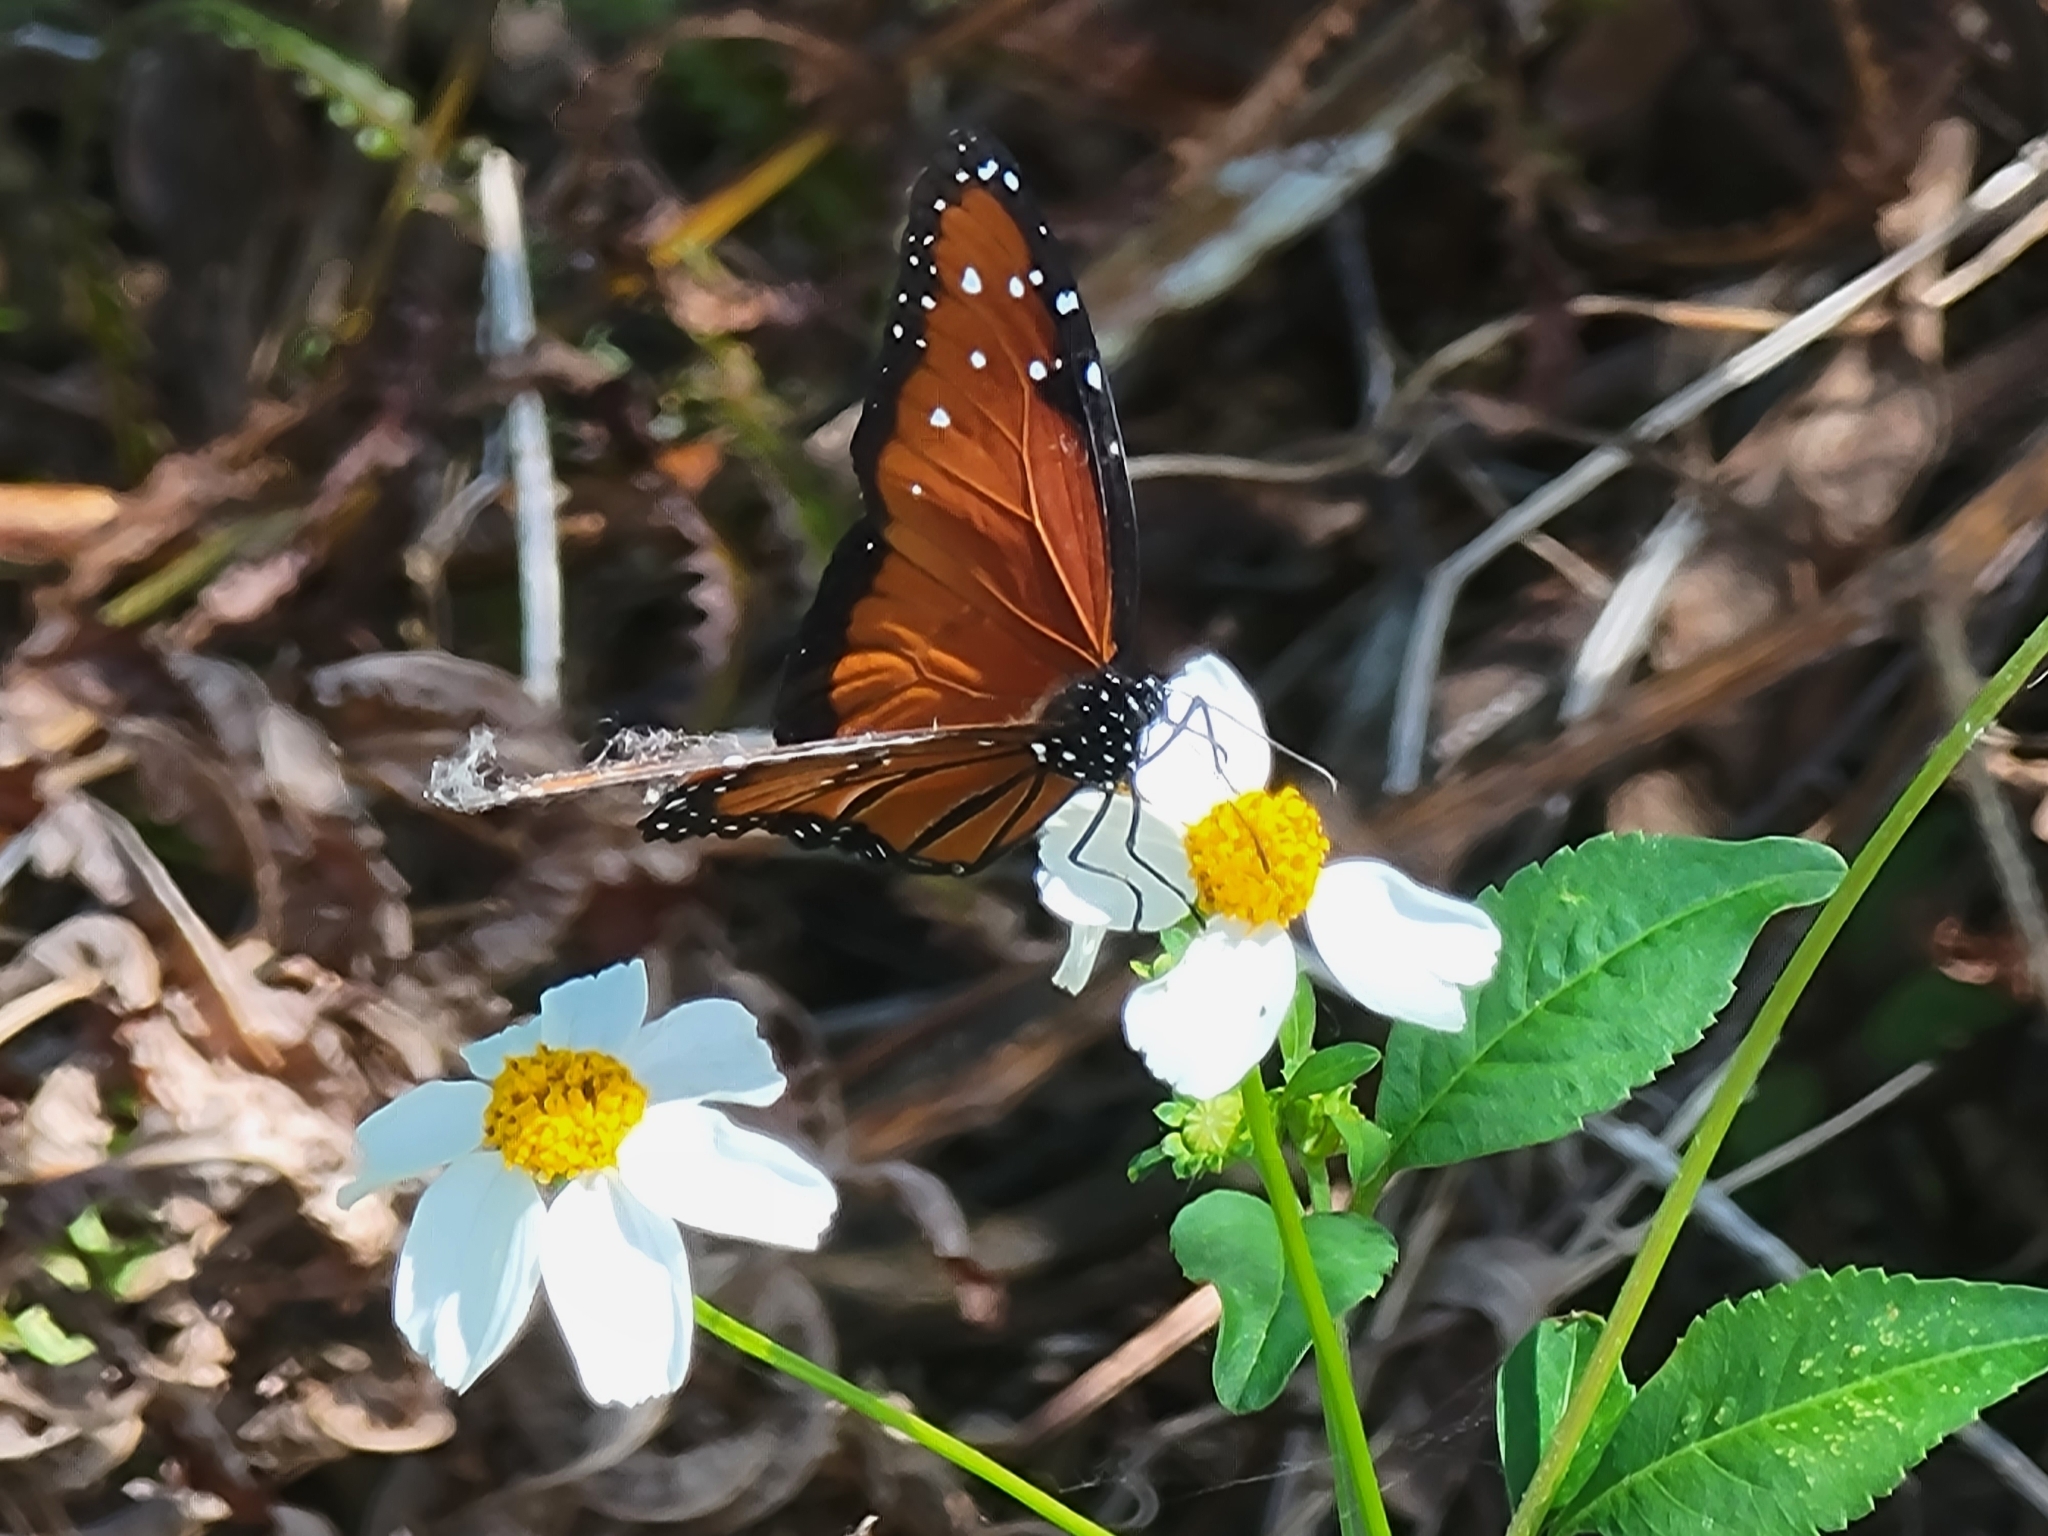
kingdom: Animalia
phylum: Arthropoda
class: Insecta
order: Lepidoptera
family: Nymphalidae
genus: Danaus
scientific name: Danaus gilippus
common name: Queen
